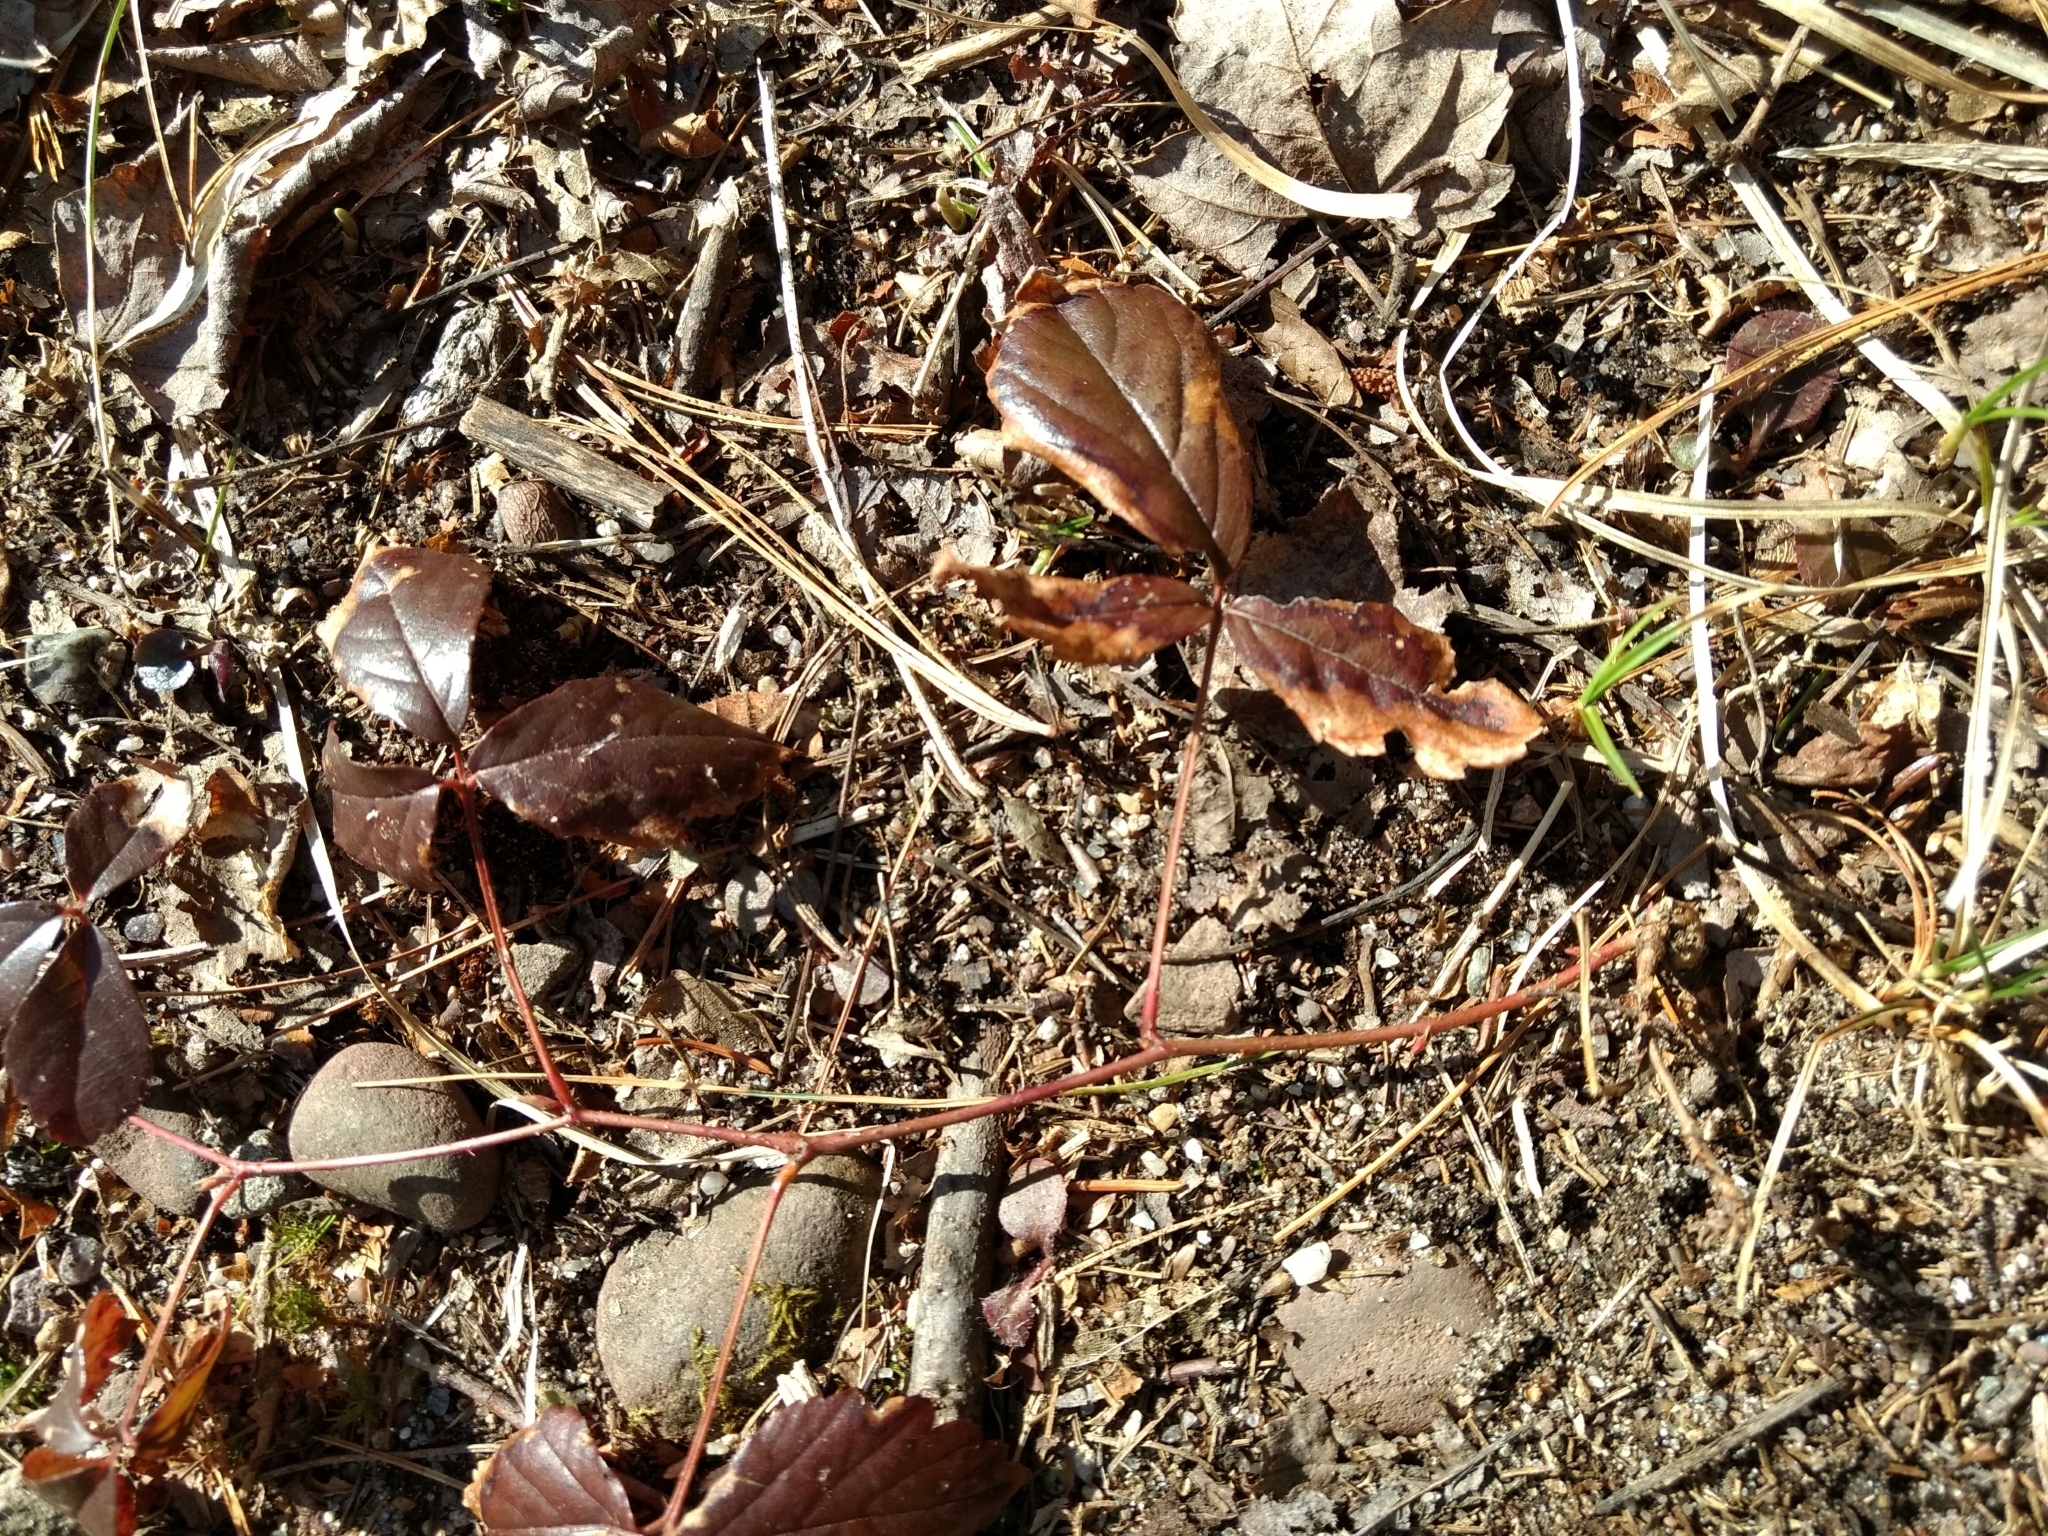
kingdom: Plantae
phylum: Tracheophyta
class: Magnoliopsida
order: Rosales
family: Rosaceae
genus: Rubus
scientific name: Rubus flagellaris
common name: American dewberry
